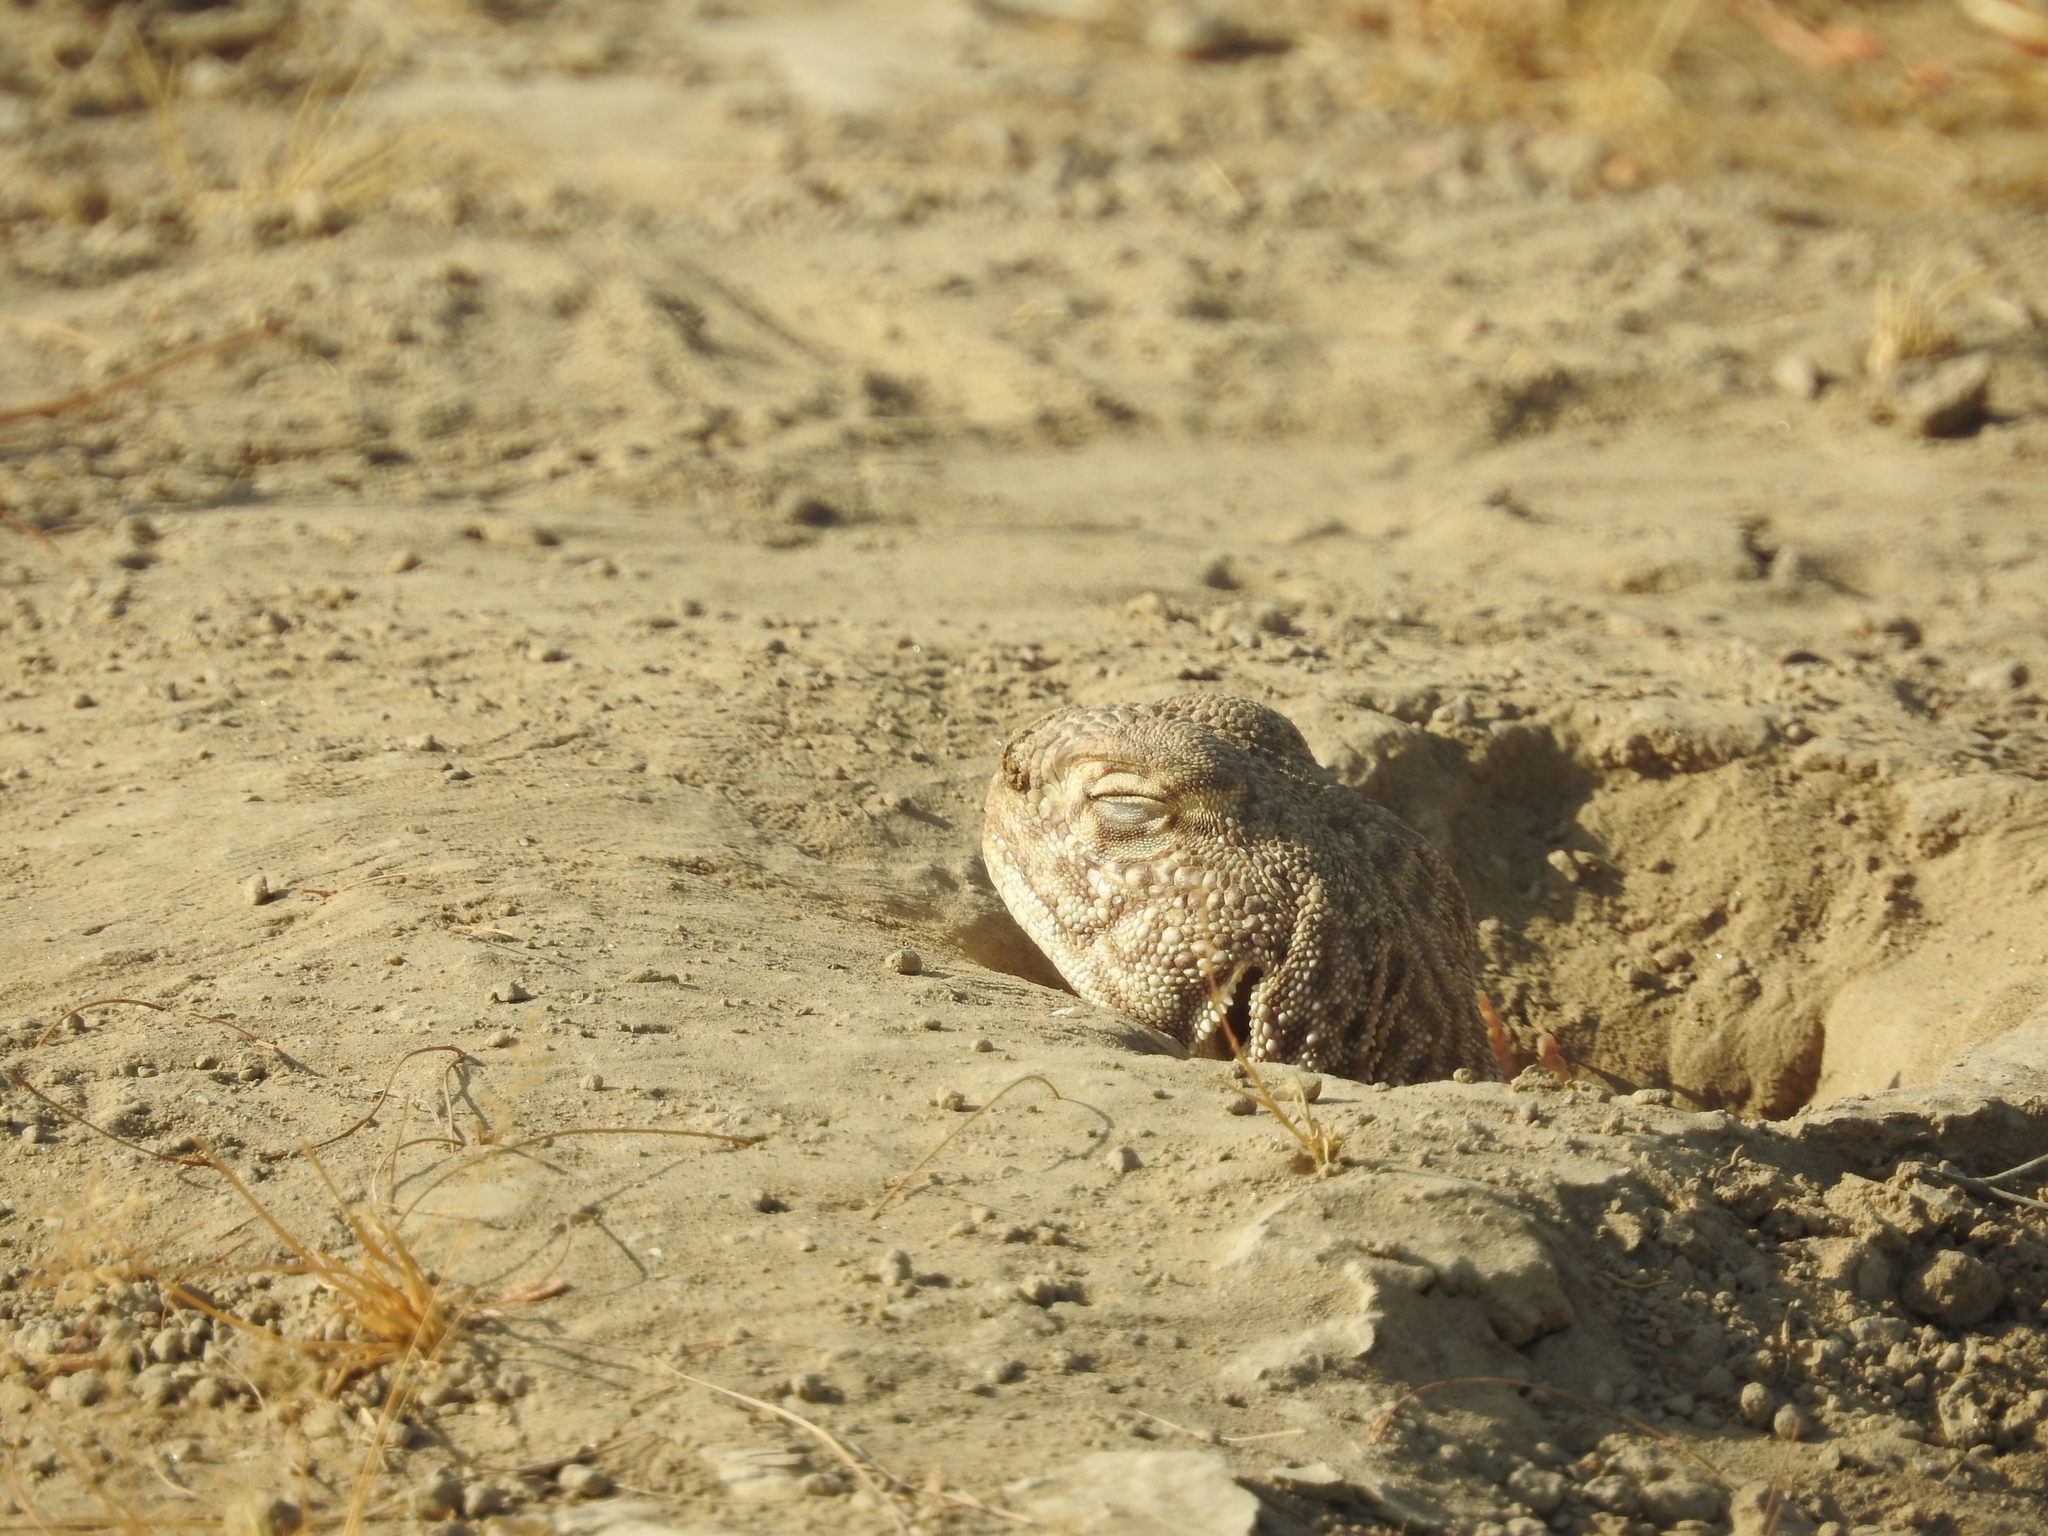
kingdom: Animalia
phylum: Chordata
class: Squamata
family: Agamidae
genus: Saara
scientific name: Saara hardwickii
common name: Hardwick's spiny-tailed lizard
